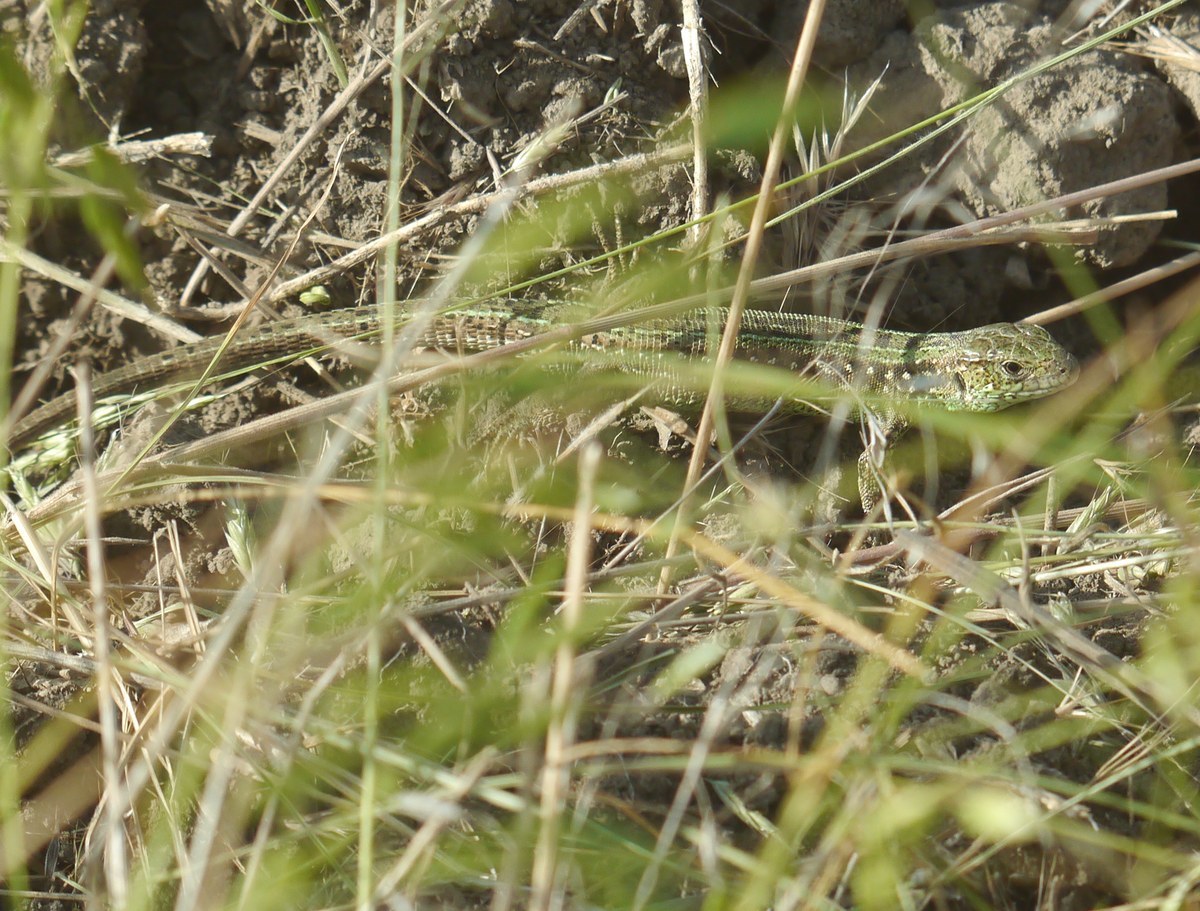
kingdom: Animalia
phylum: Chordata
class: Squamata
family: Lacertidae
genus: Lacerta
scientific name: Lacerta agilis
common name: Sand lizard
